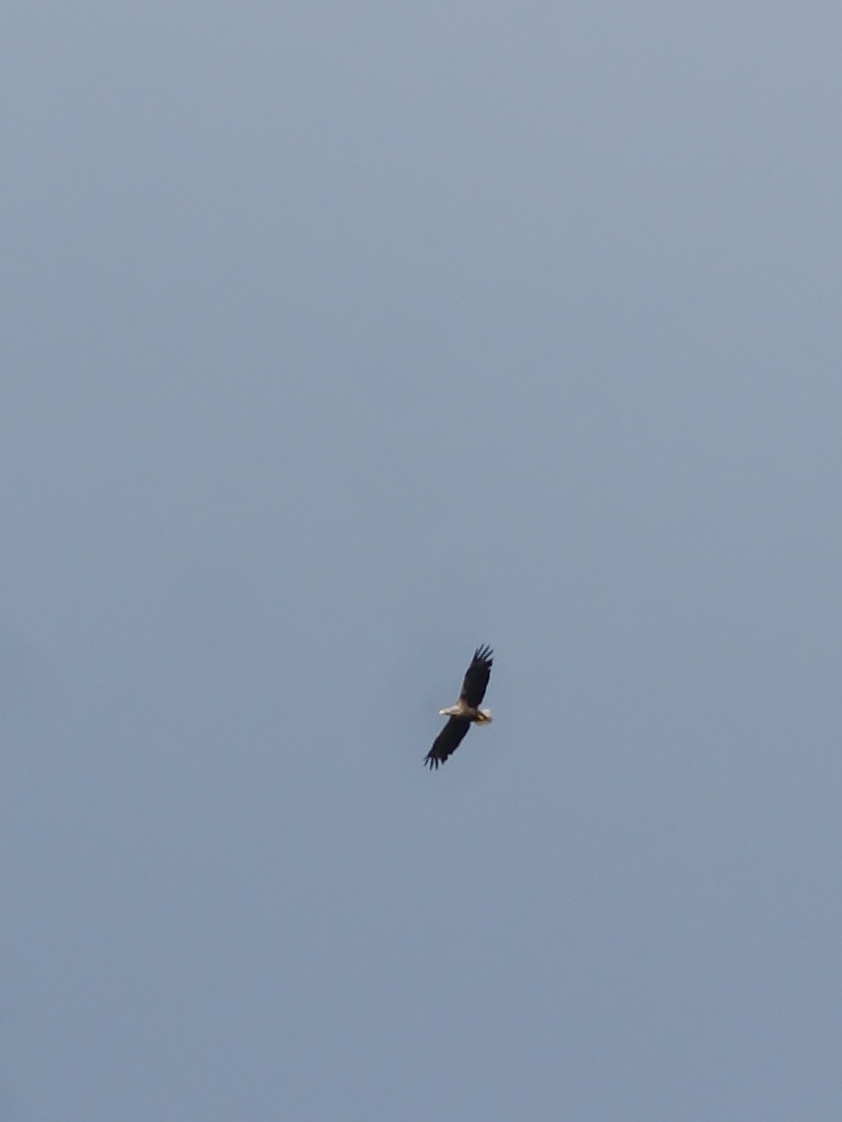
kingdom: Animalia
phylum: Chordata
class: Aves
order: Accipitriformes
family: Accipitridae
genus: Haliaeetus
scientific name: Haliaeetus albicilla
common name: White-tailed eagle
